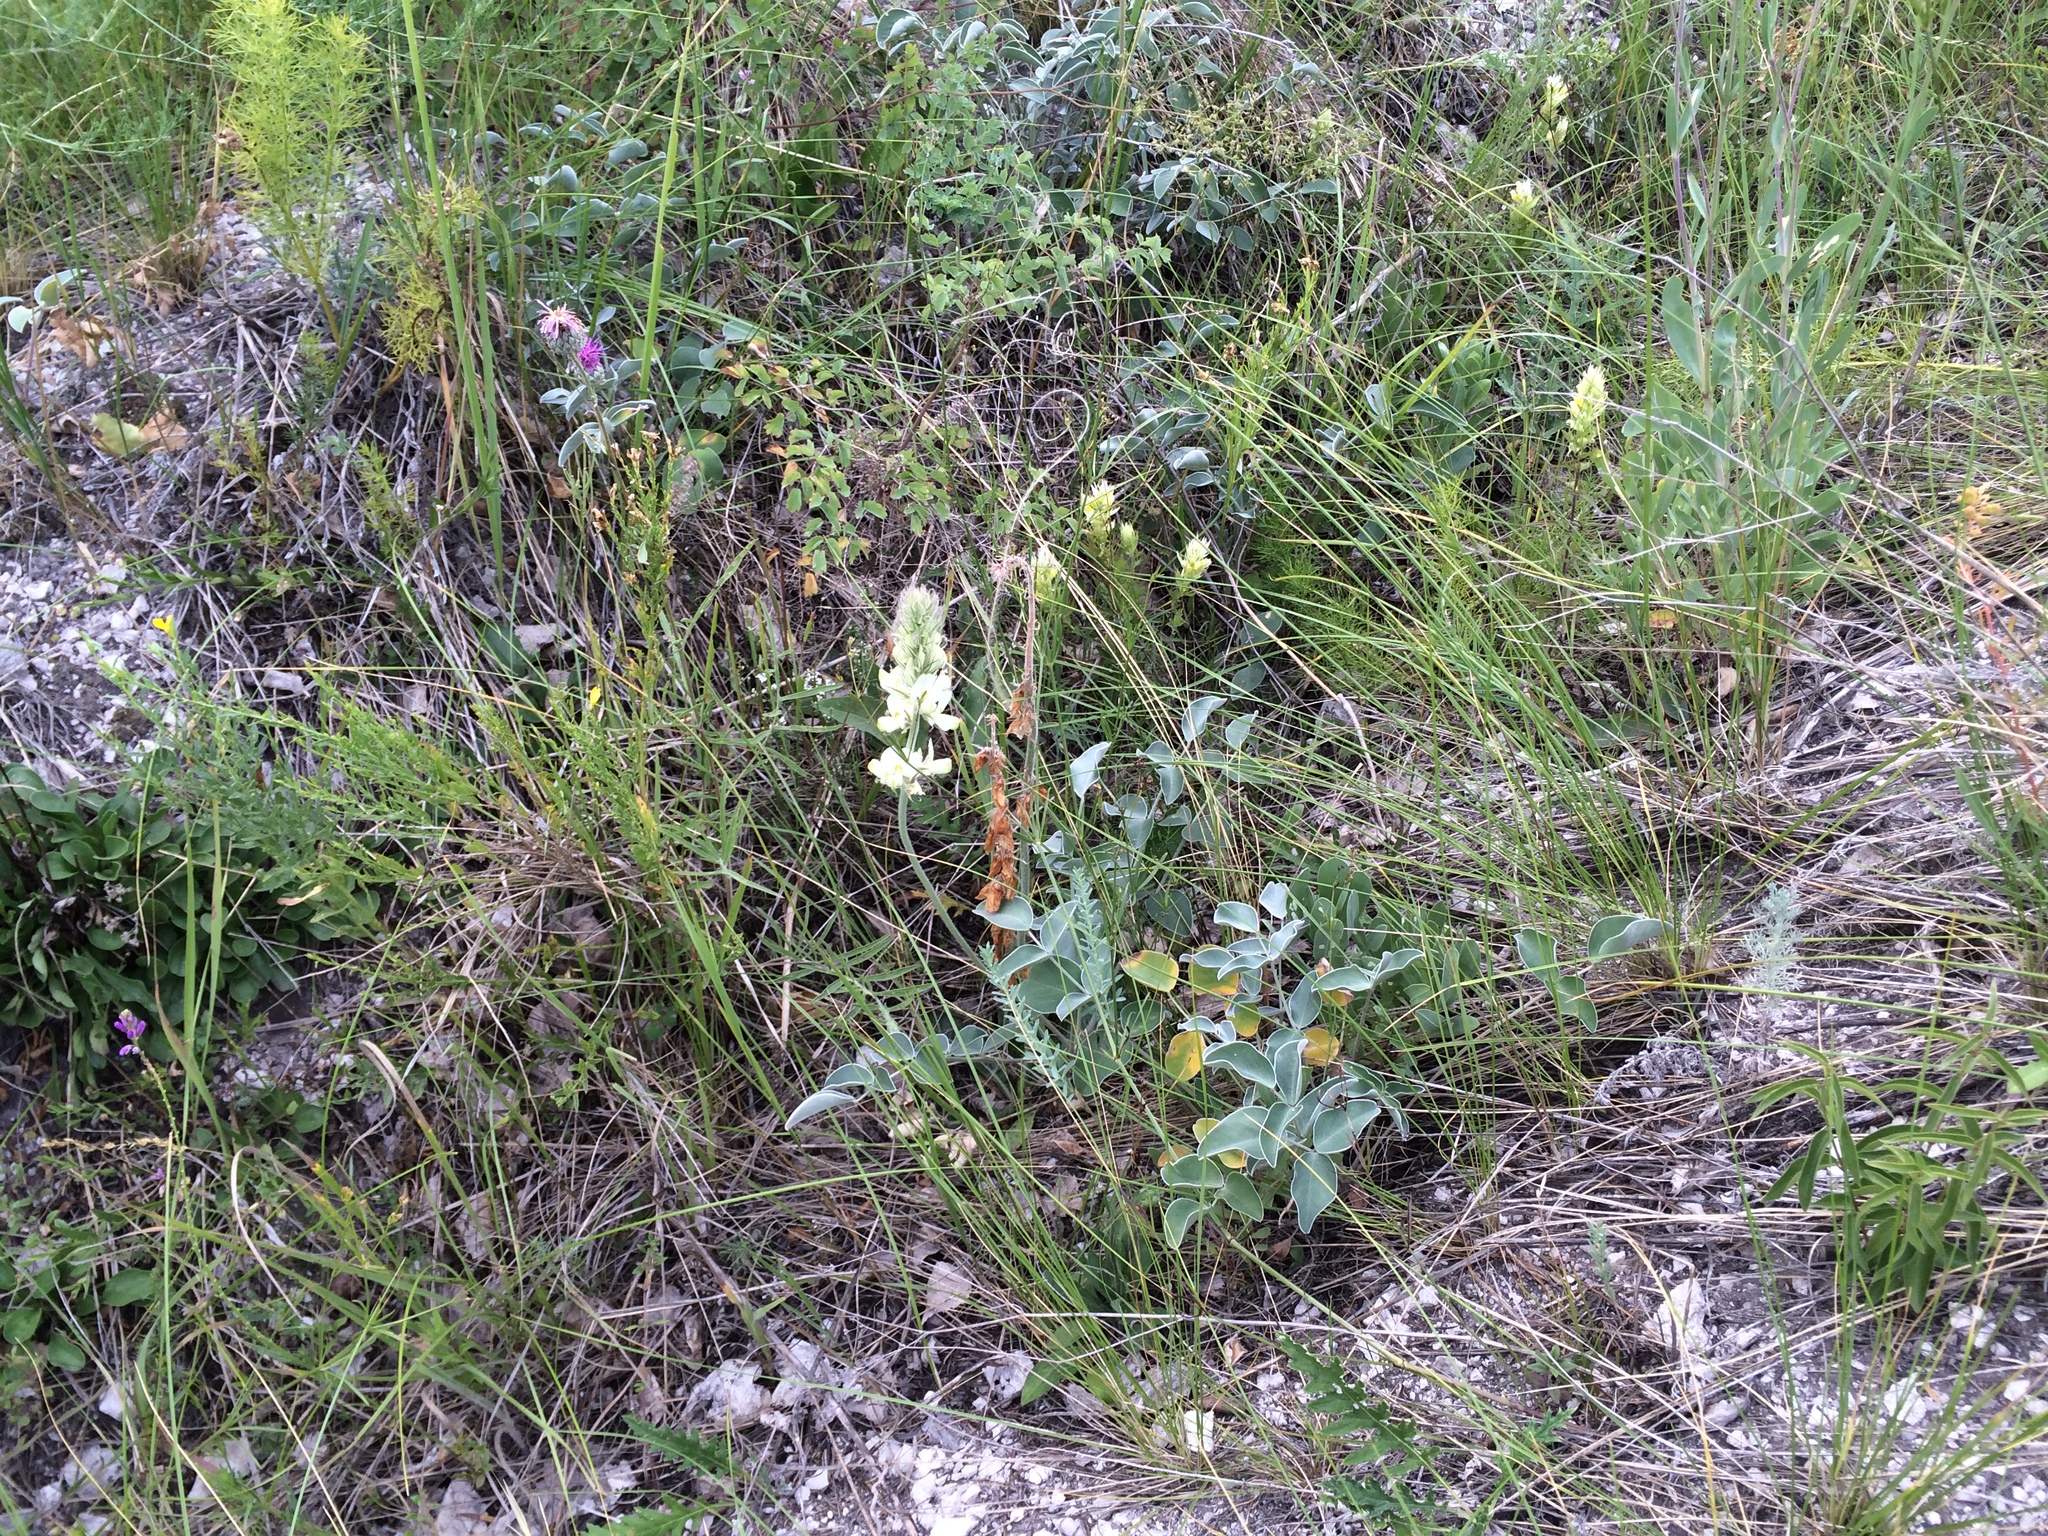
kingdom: Plantae
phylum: Tracheophyta
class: Magnoliopsida
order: Fabales
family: Fabaceae
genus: Hedysarum
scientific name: Hedysarum grandiflorum
